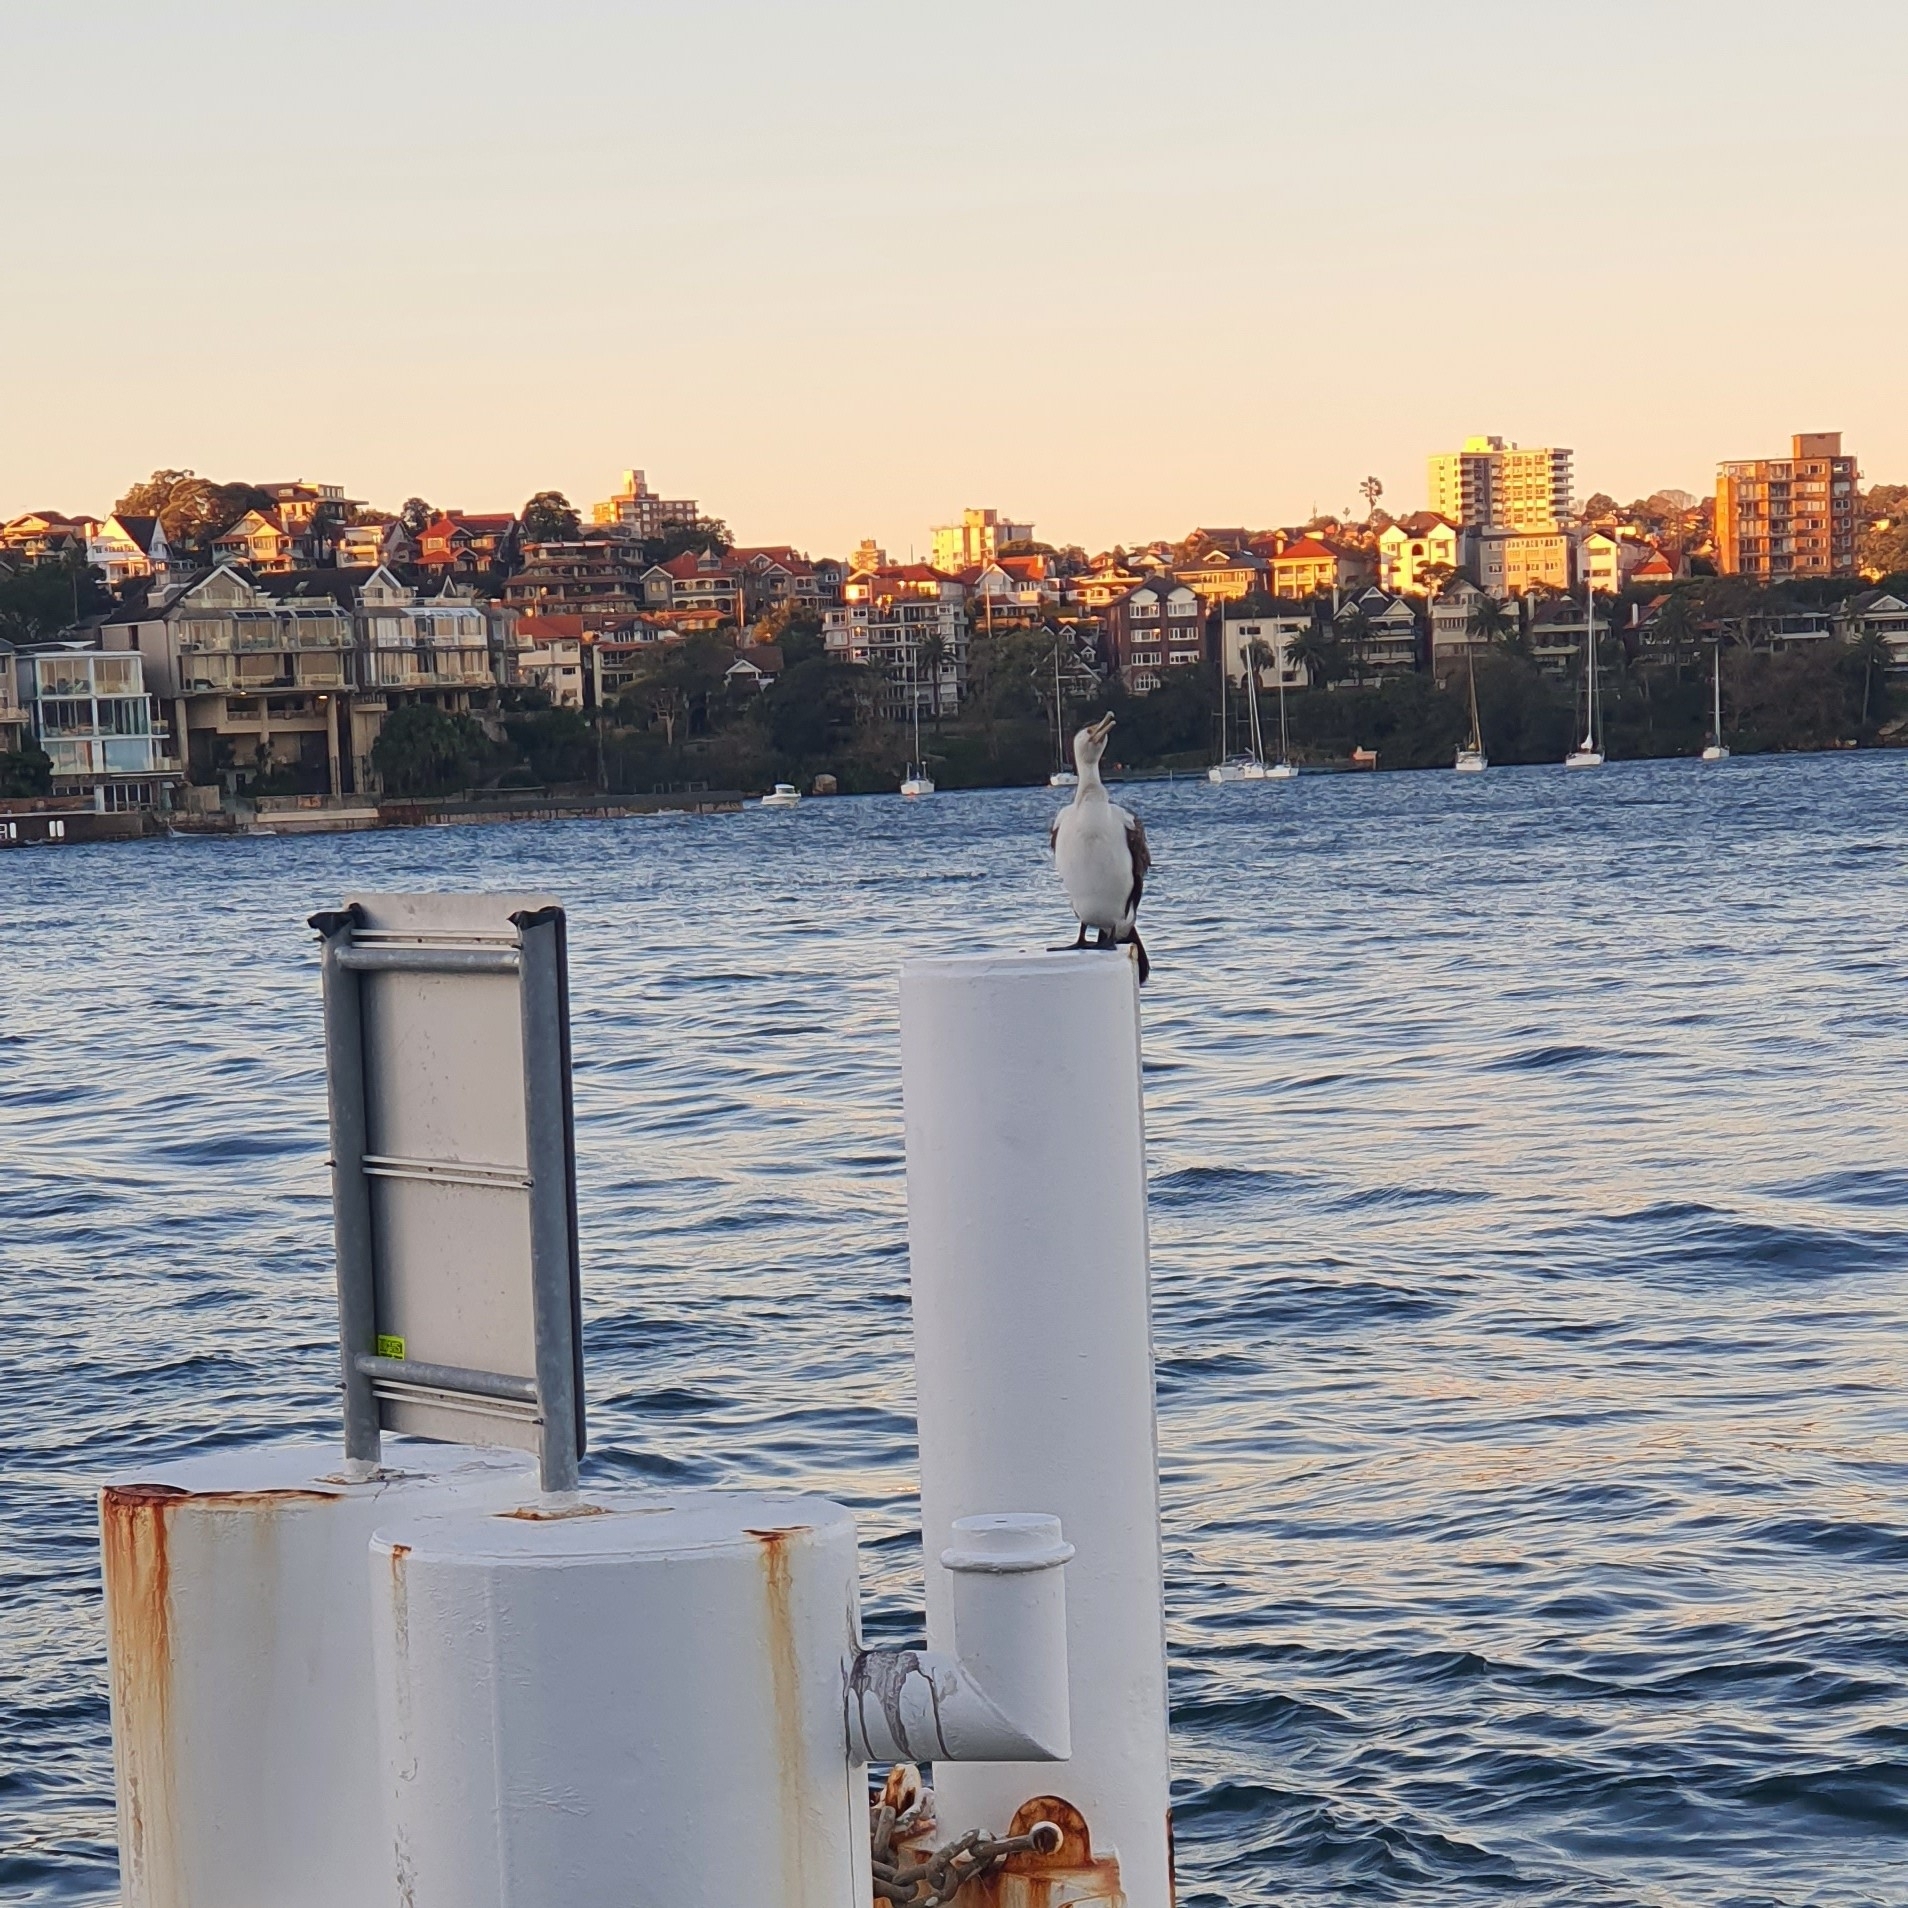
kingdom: Animalia
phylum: Chordata
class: Aves
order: Suliformes
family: Phalacrocoracidae
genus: Phalacrocorax
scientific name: Phalacrocorax varius
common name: Pied cormorant
